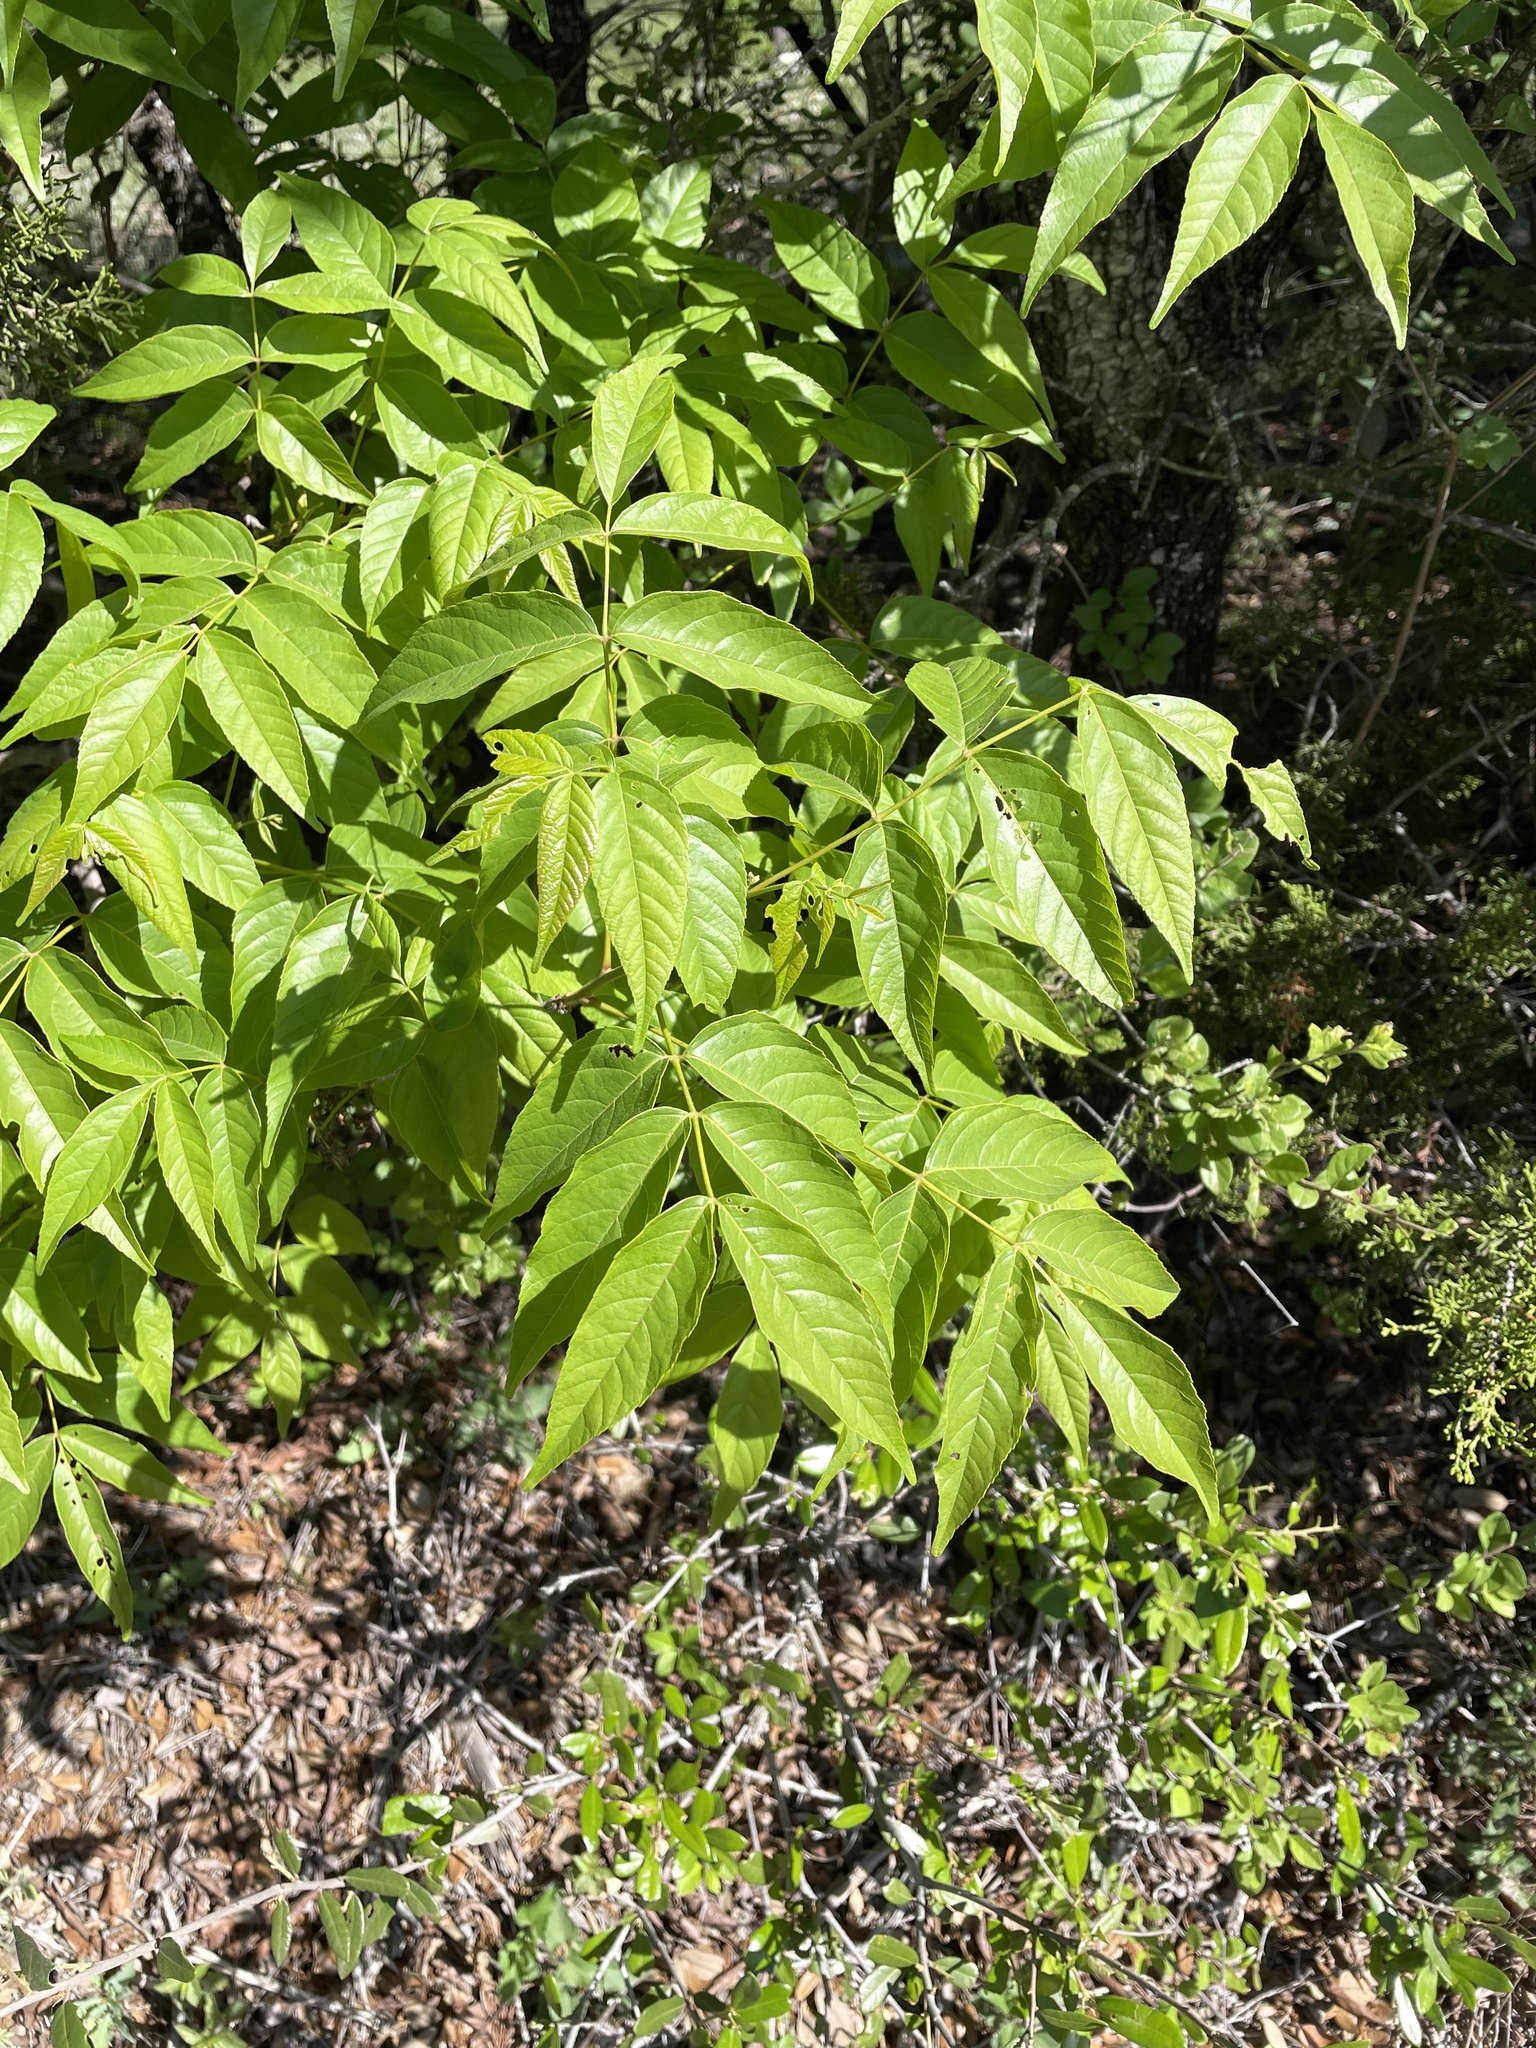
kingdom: Plantae
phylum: Tracheophyta
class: Magnoliopsida
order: Sapindales
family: Sapindaceae
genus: Ungnadia
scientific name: Ungnadia speciosa
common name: Texas-buckeye
